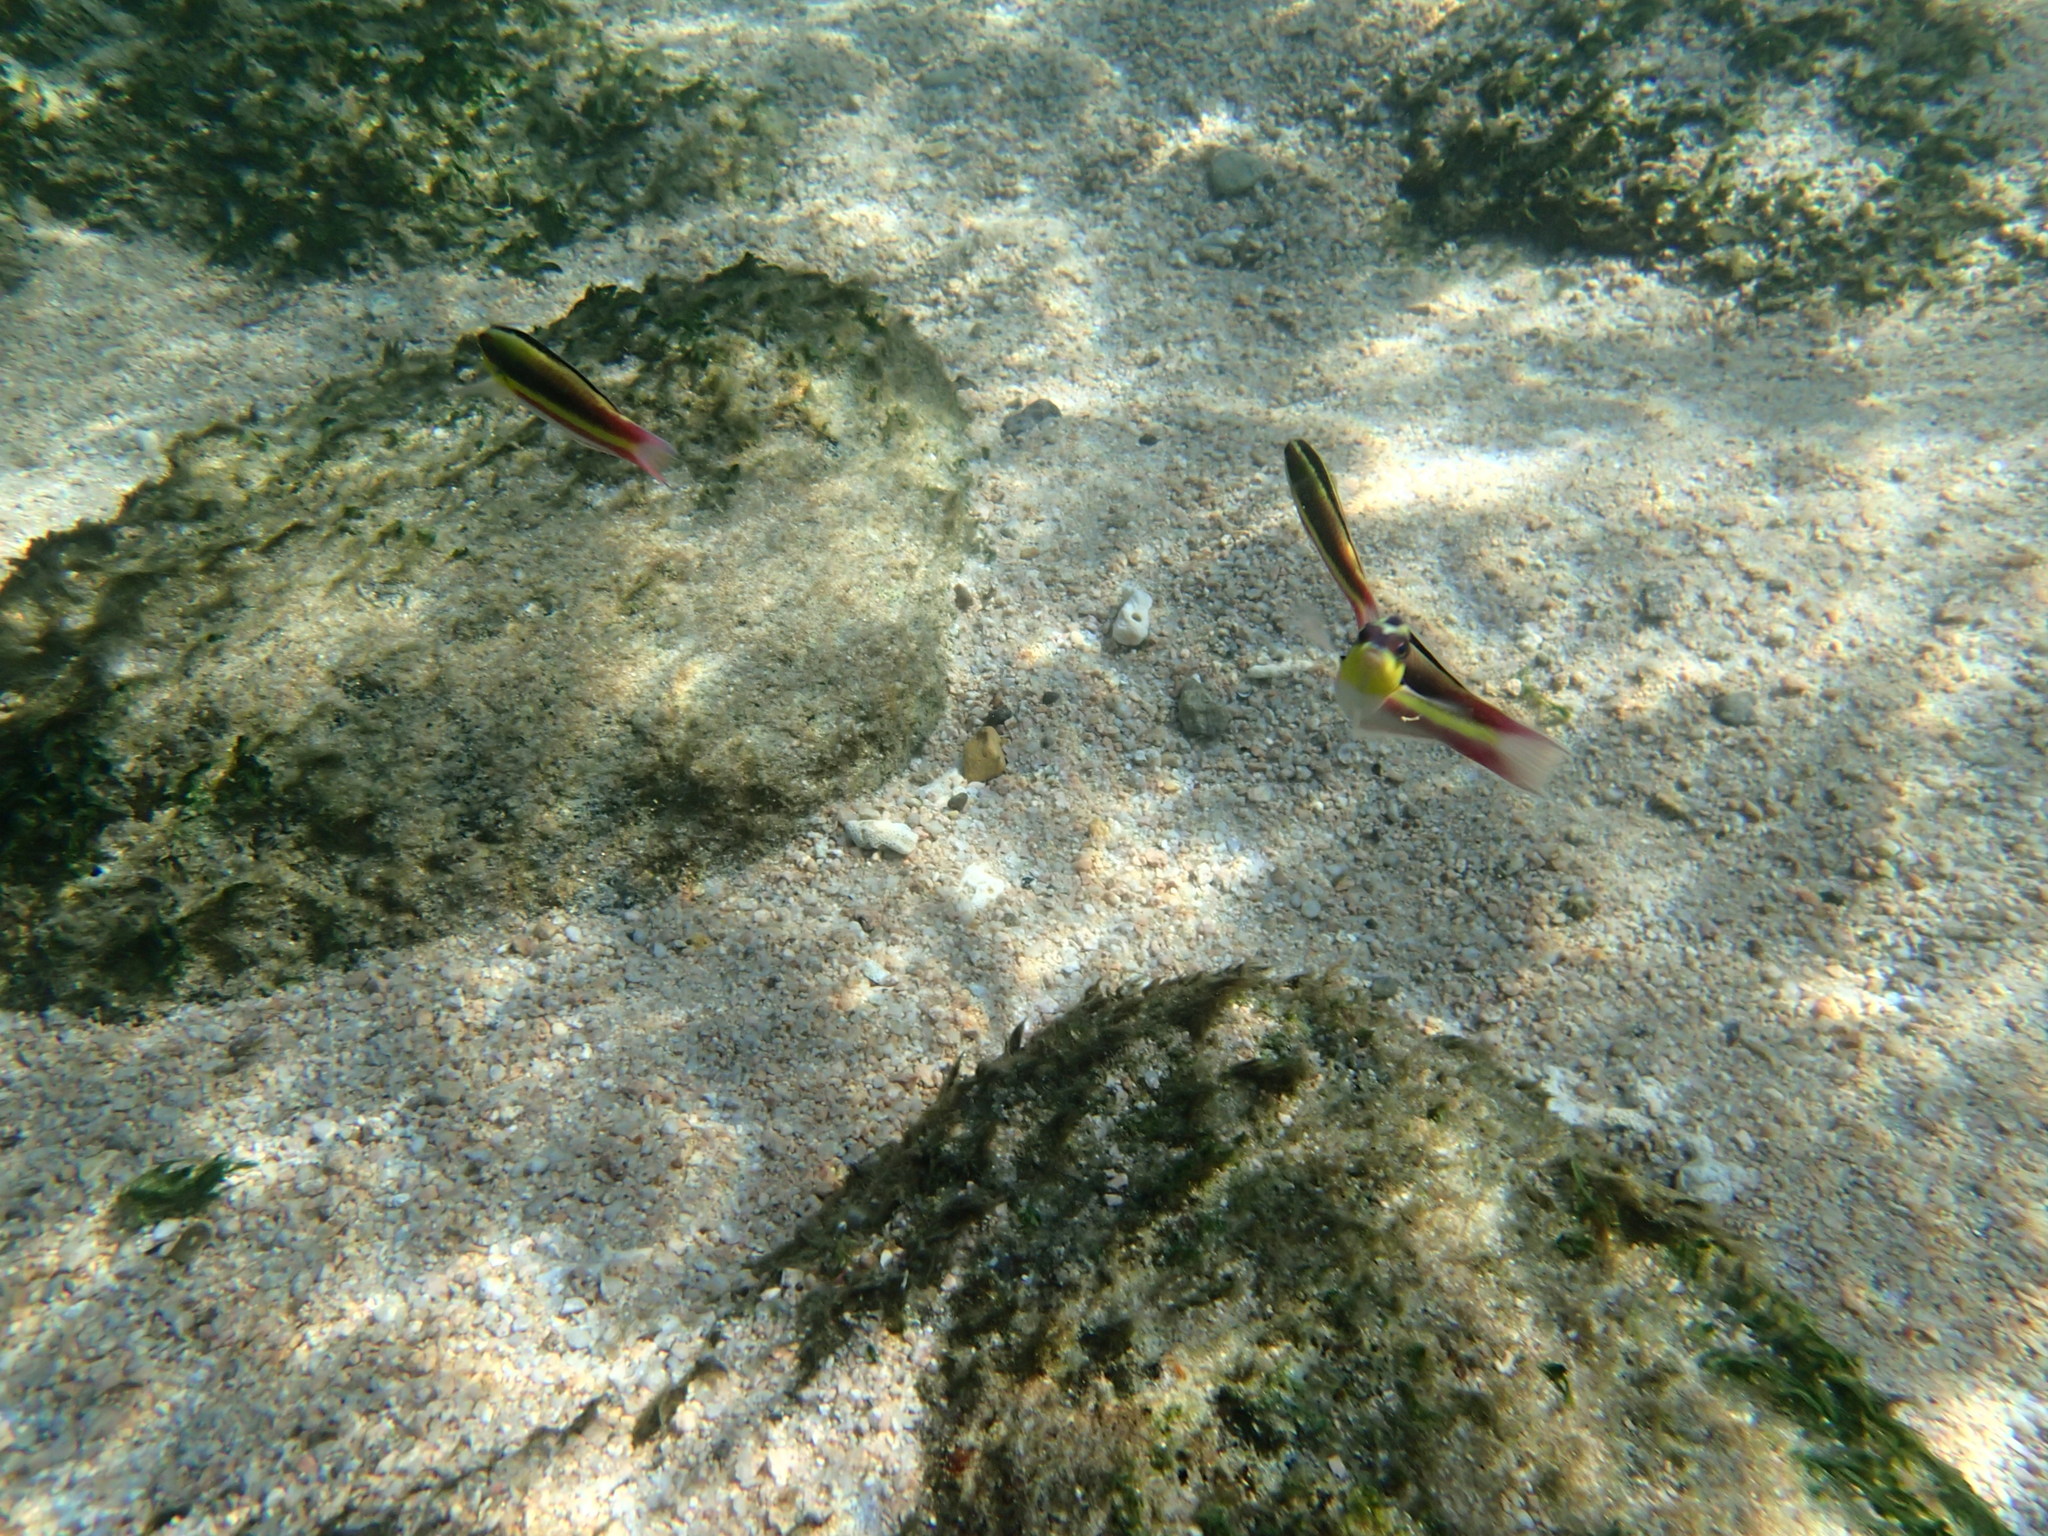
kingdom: Animalia
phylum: Chordata
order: Perciformes
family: Labridae
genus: Thalassoma
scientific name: Thalassoma lucasanum
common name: Cortez rainbow wrasse
